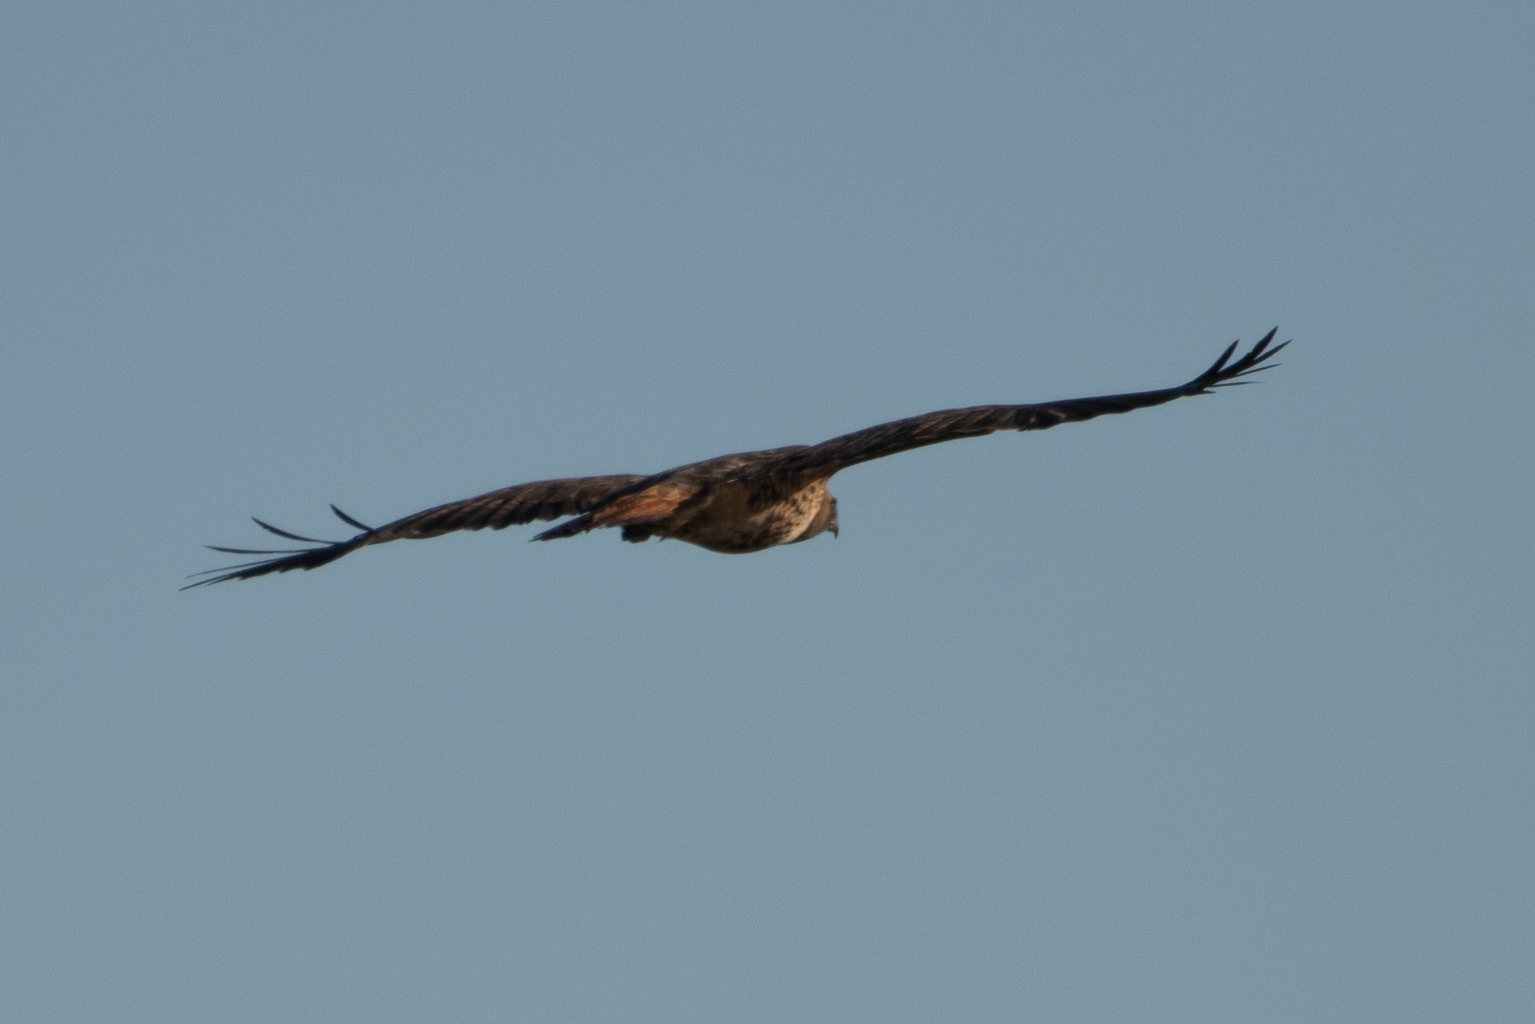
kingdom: Animalia
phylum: Chordata
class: Aves
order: Accipitriformes
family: Accipitridae
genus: Buteo
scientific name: Buteo jamaicensis
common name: Red-tailed hawk
